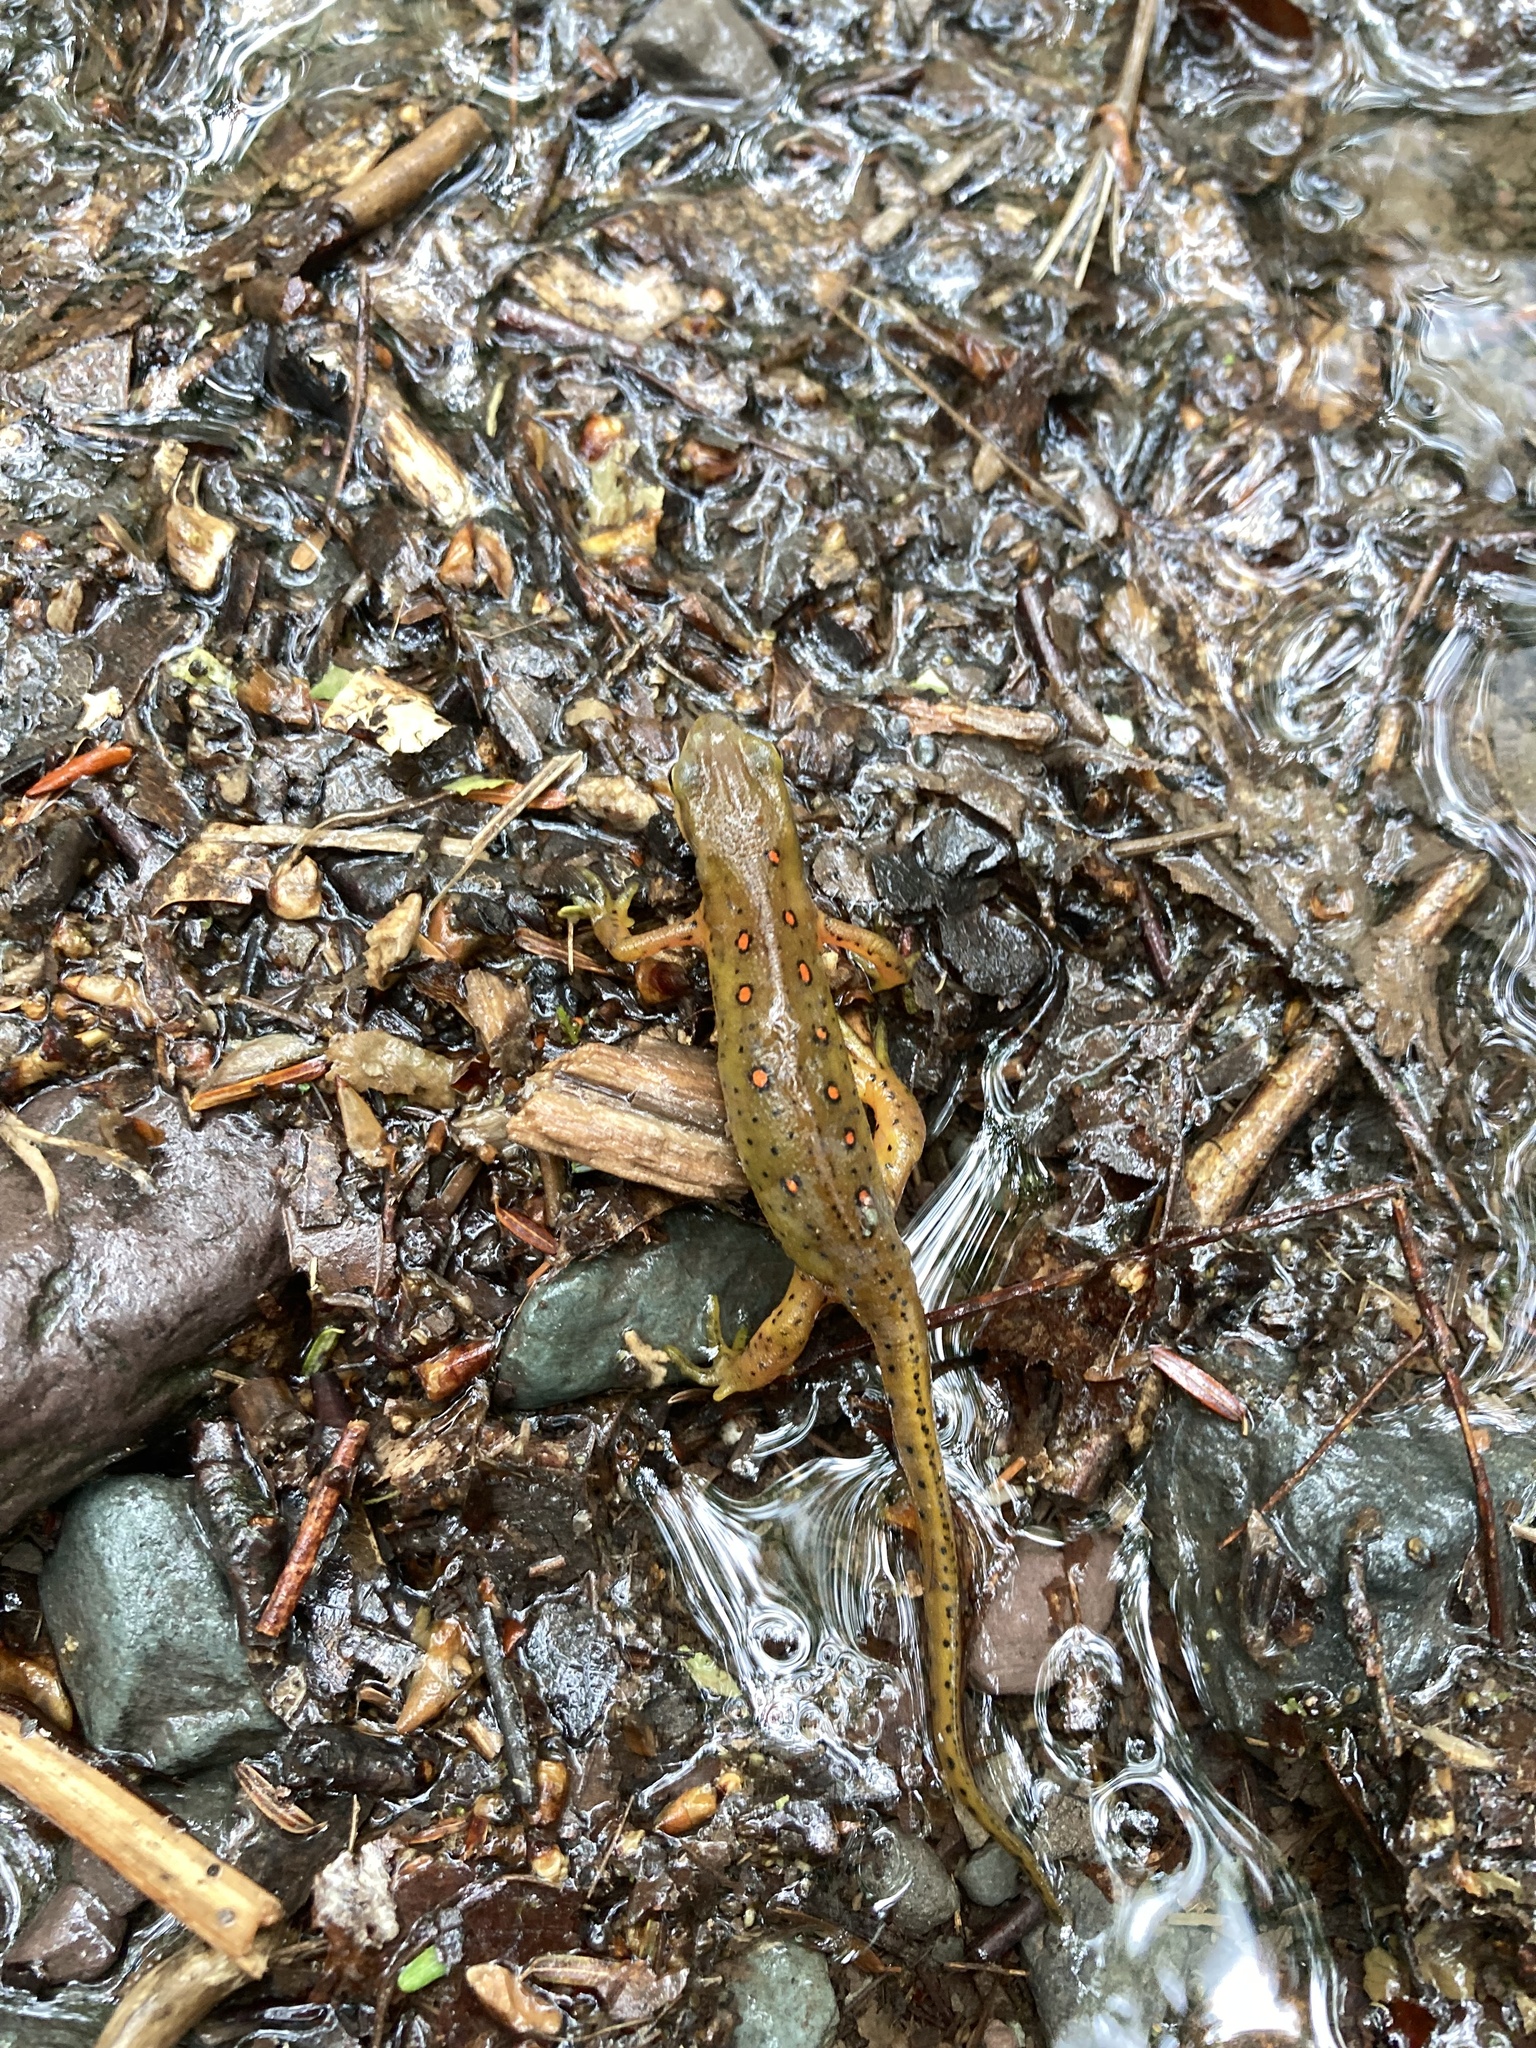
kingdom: Animalia
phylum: Chordata
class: Amphibia
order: Caudata
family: Salamandridae
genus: Notophthalmus
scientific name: Notophthalmus viridescens
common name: Eastern newt
